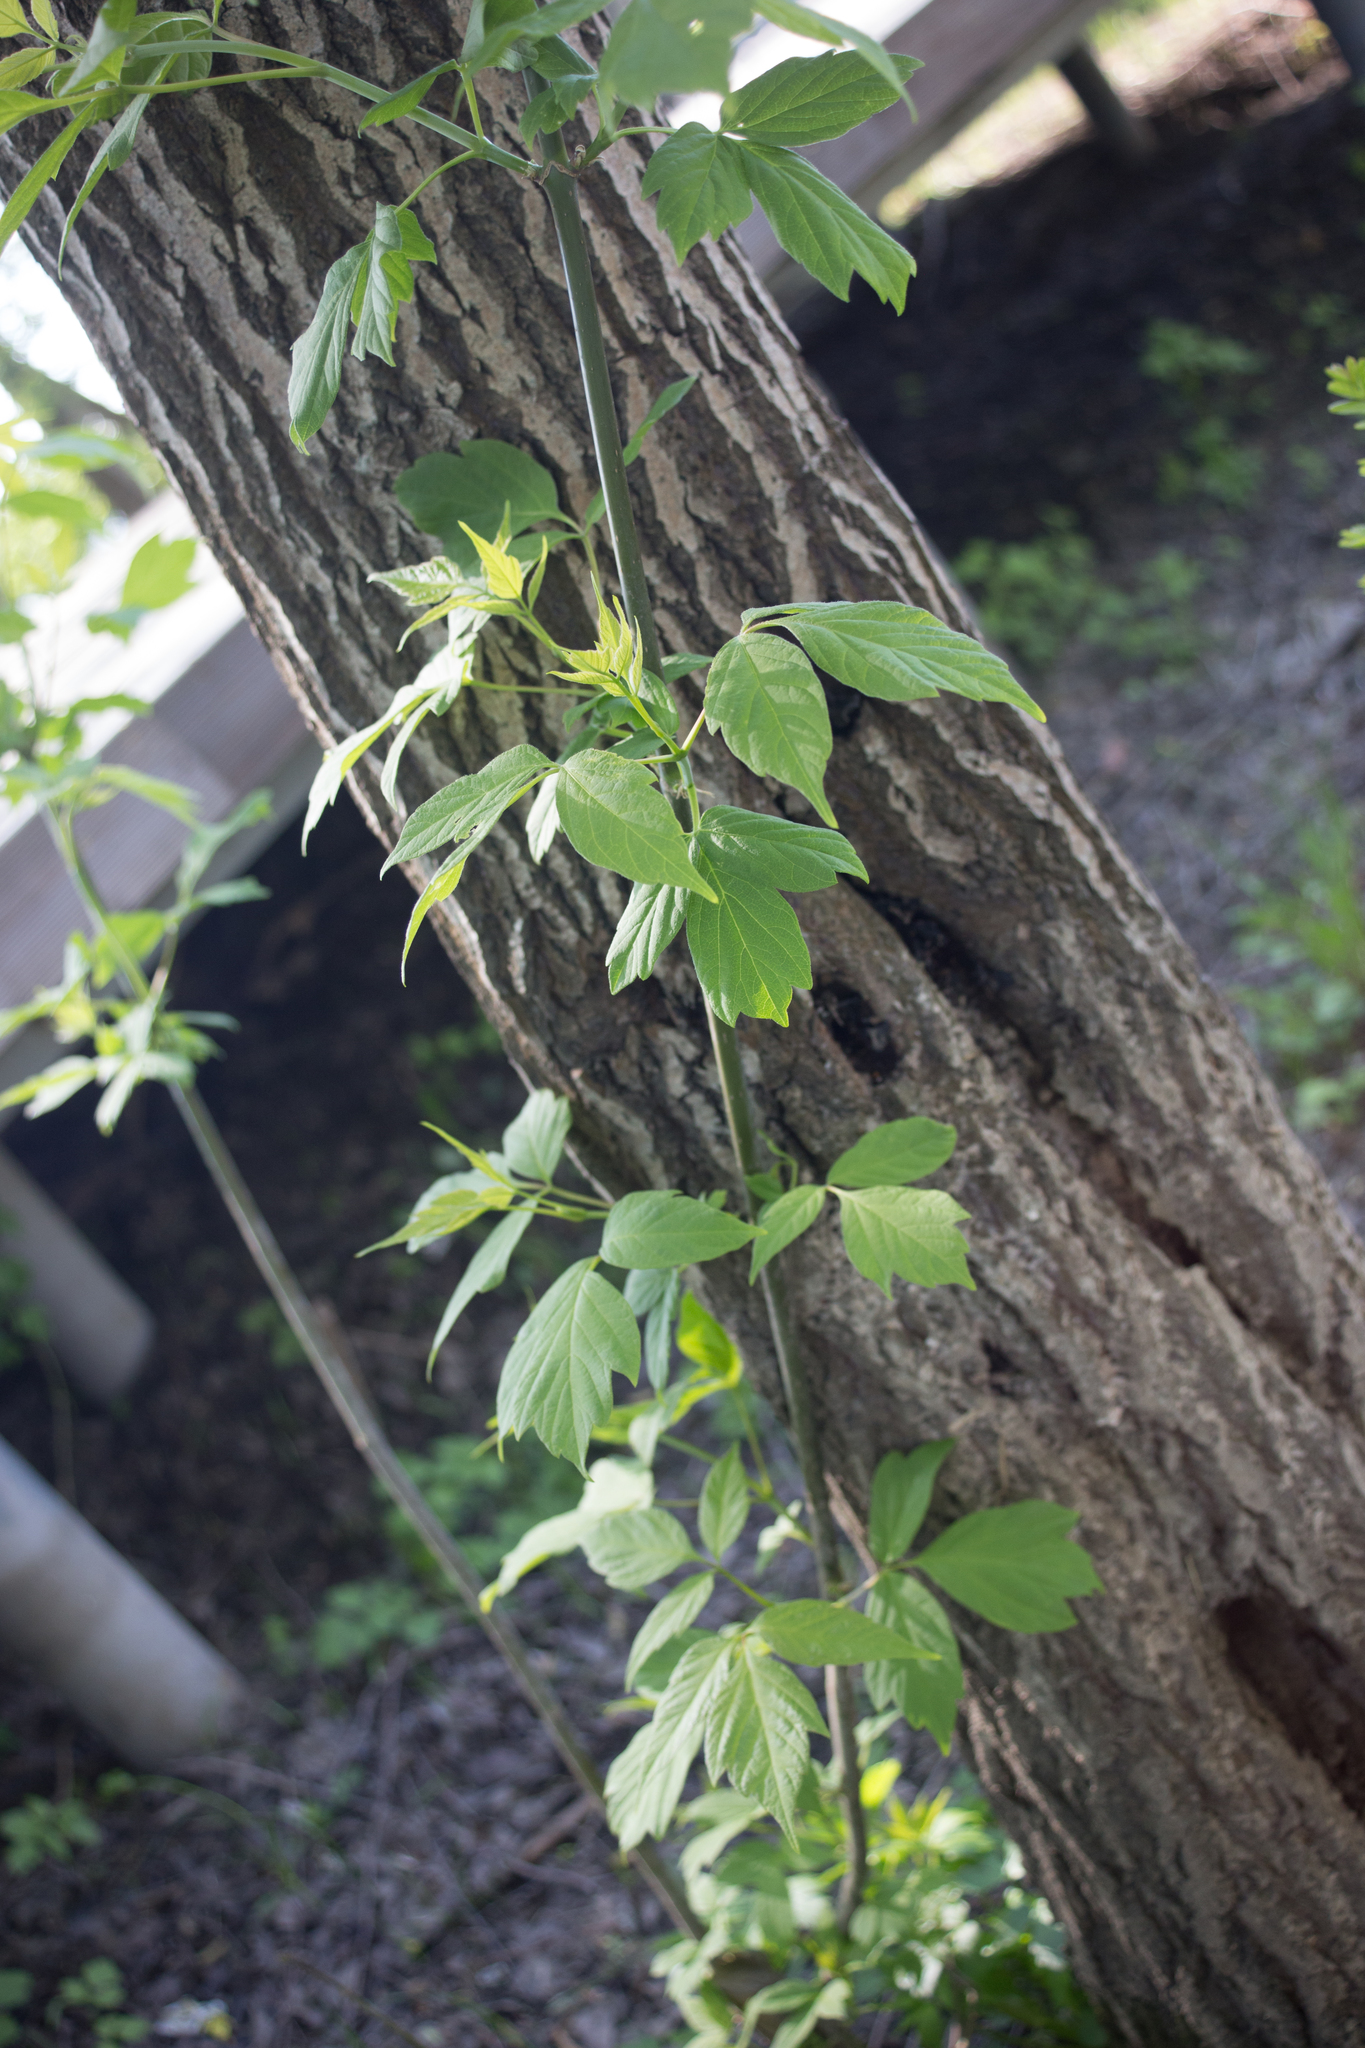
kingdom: Plantae
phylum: Tracheophyta
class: Magnoliopsida
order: Sapindales
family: Sapindaceae
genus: Acer
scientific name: Acer negundo
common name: Ashleaf maple
